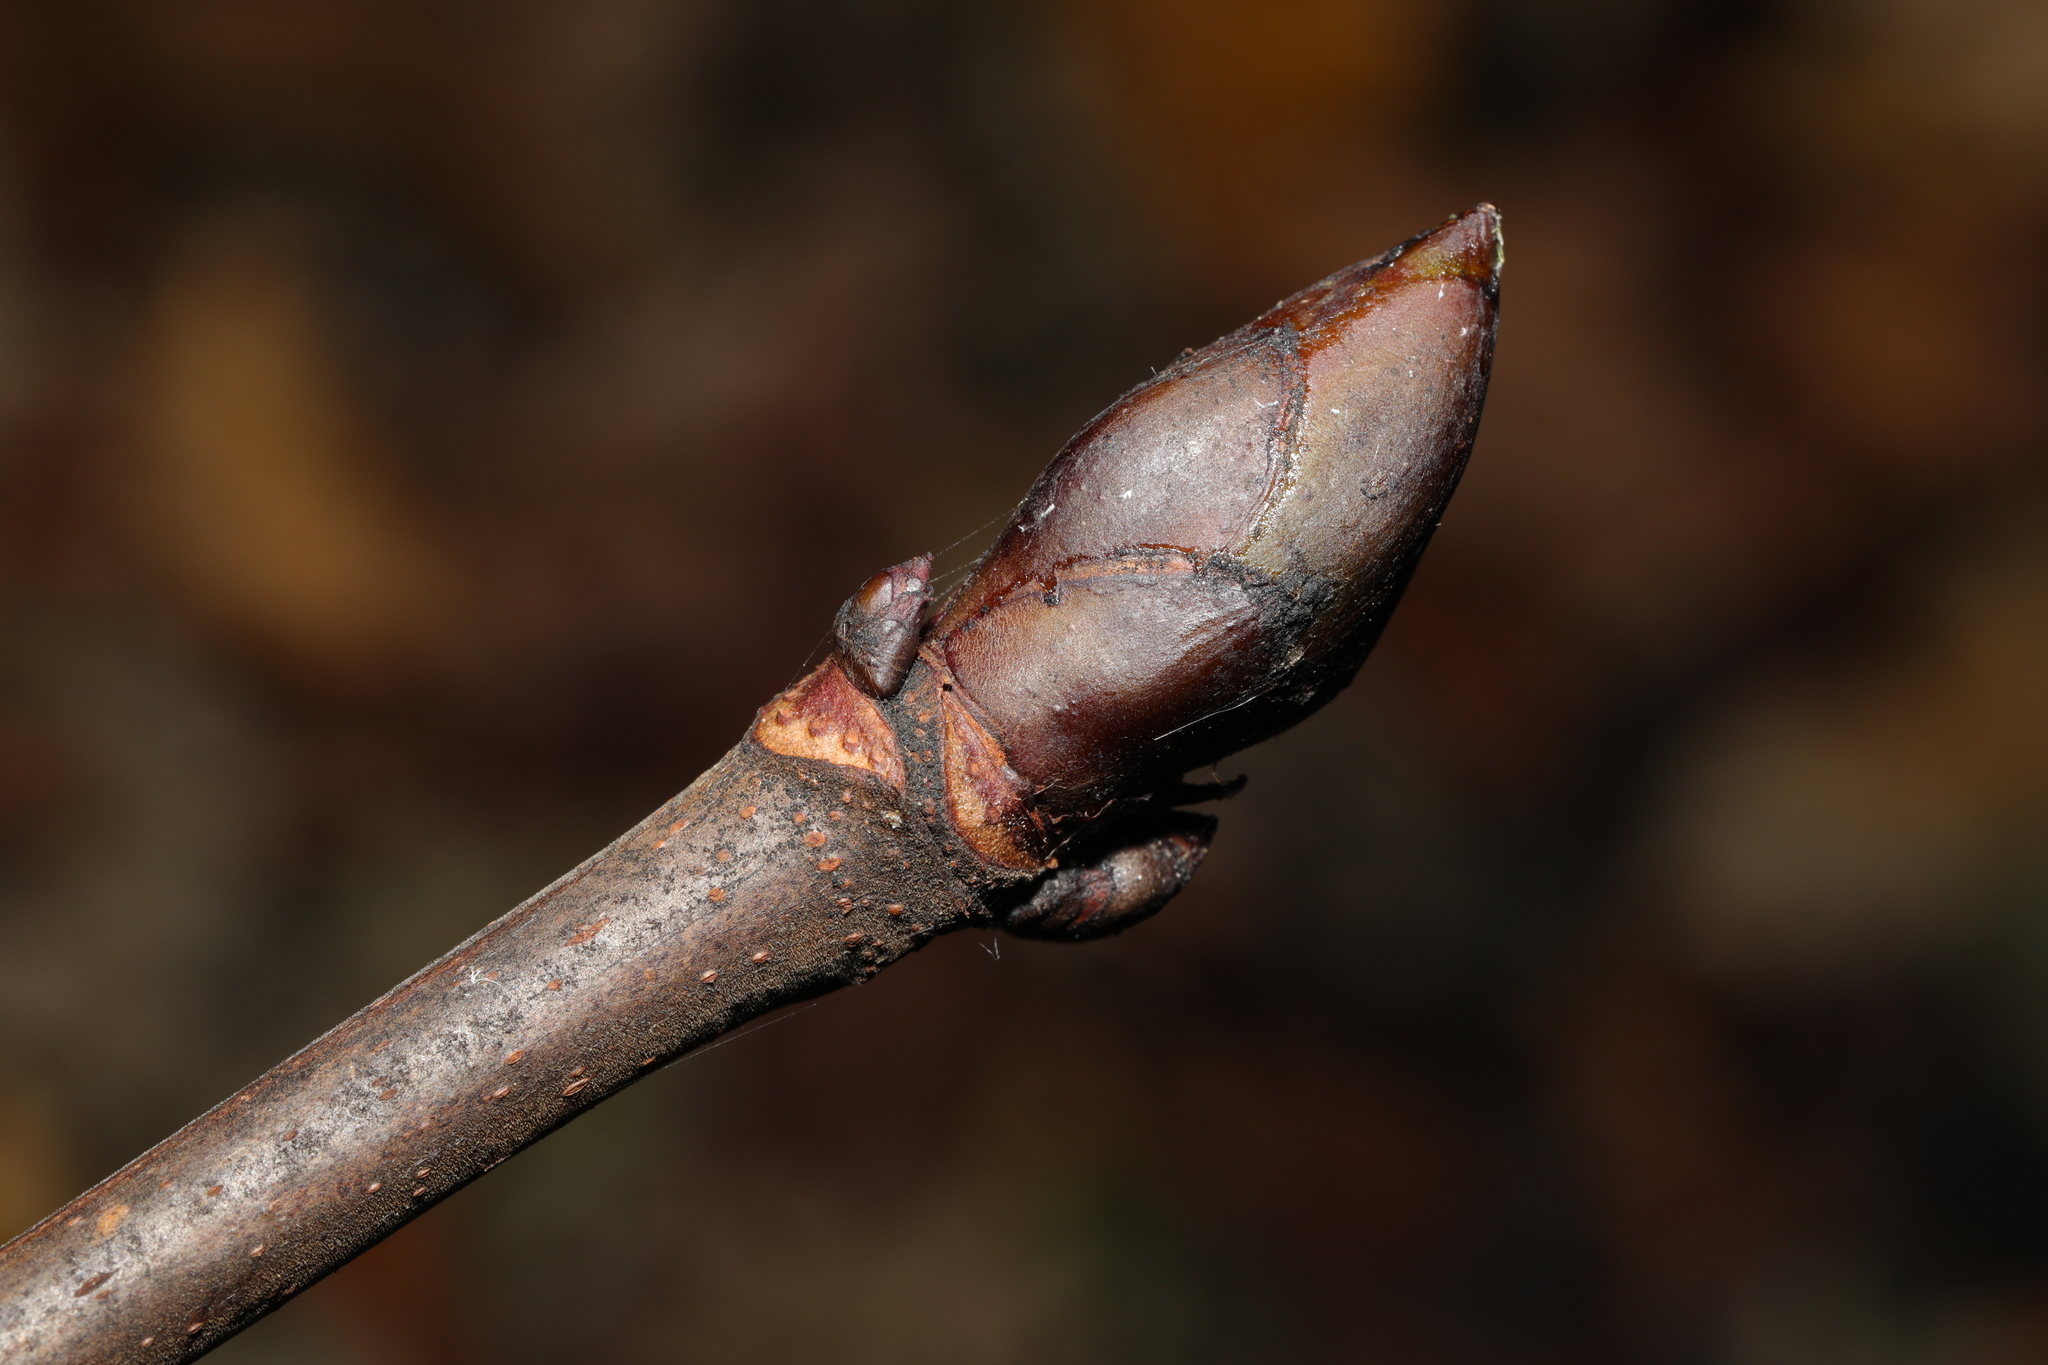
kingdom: Plantae
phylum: Tracheophyta
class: Magnoliopsida
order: Sapindales
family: Sapindaceae
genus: Aesculus
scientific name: Aesculus hippocastanum
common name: Horse-chestnut
